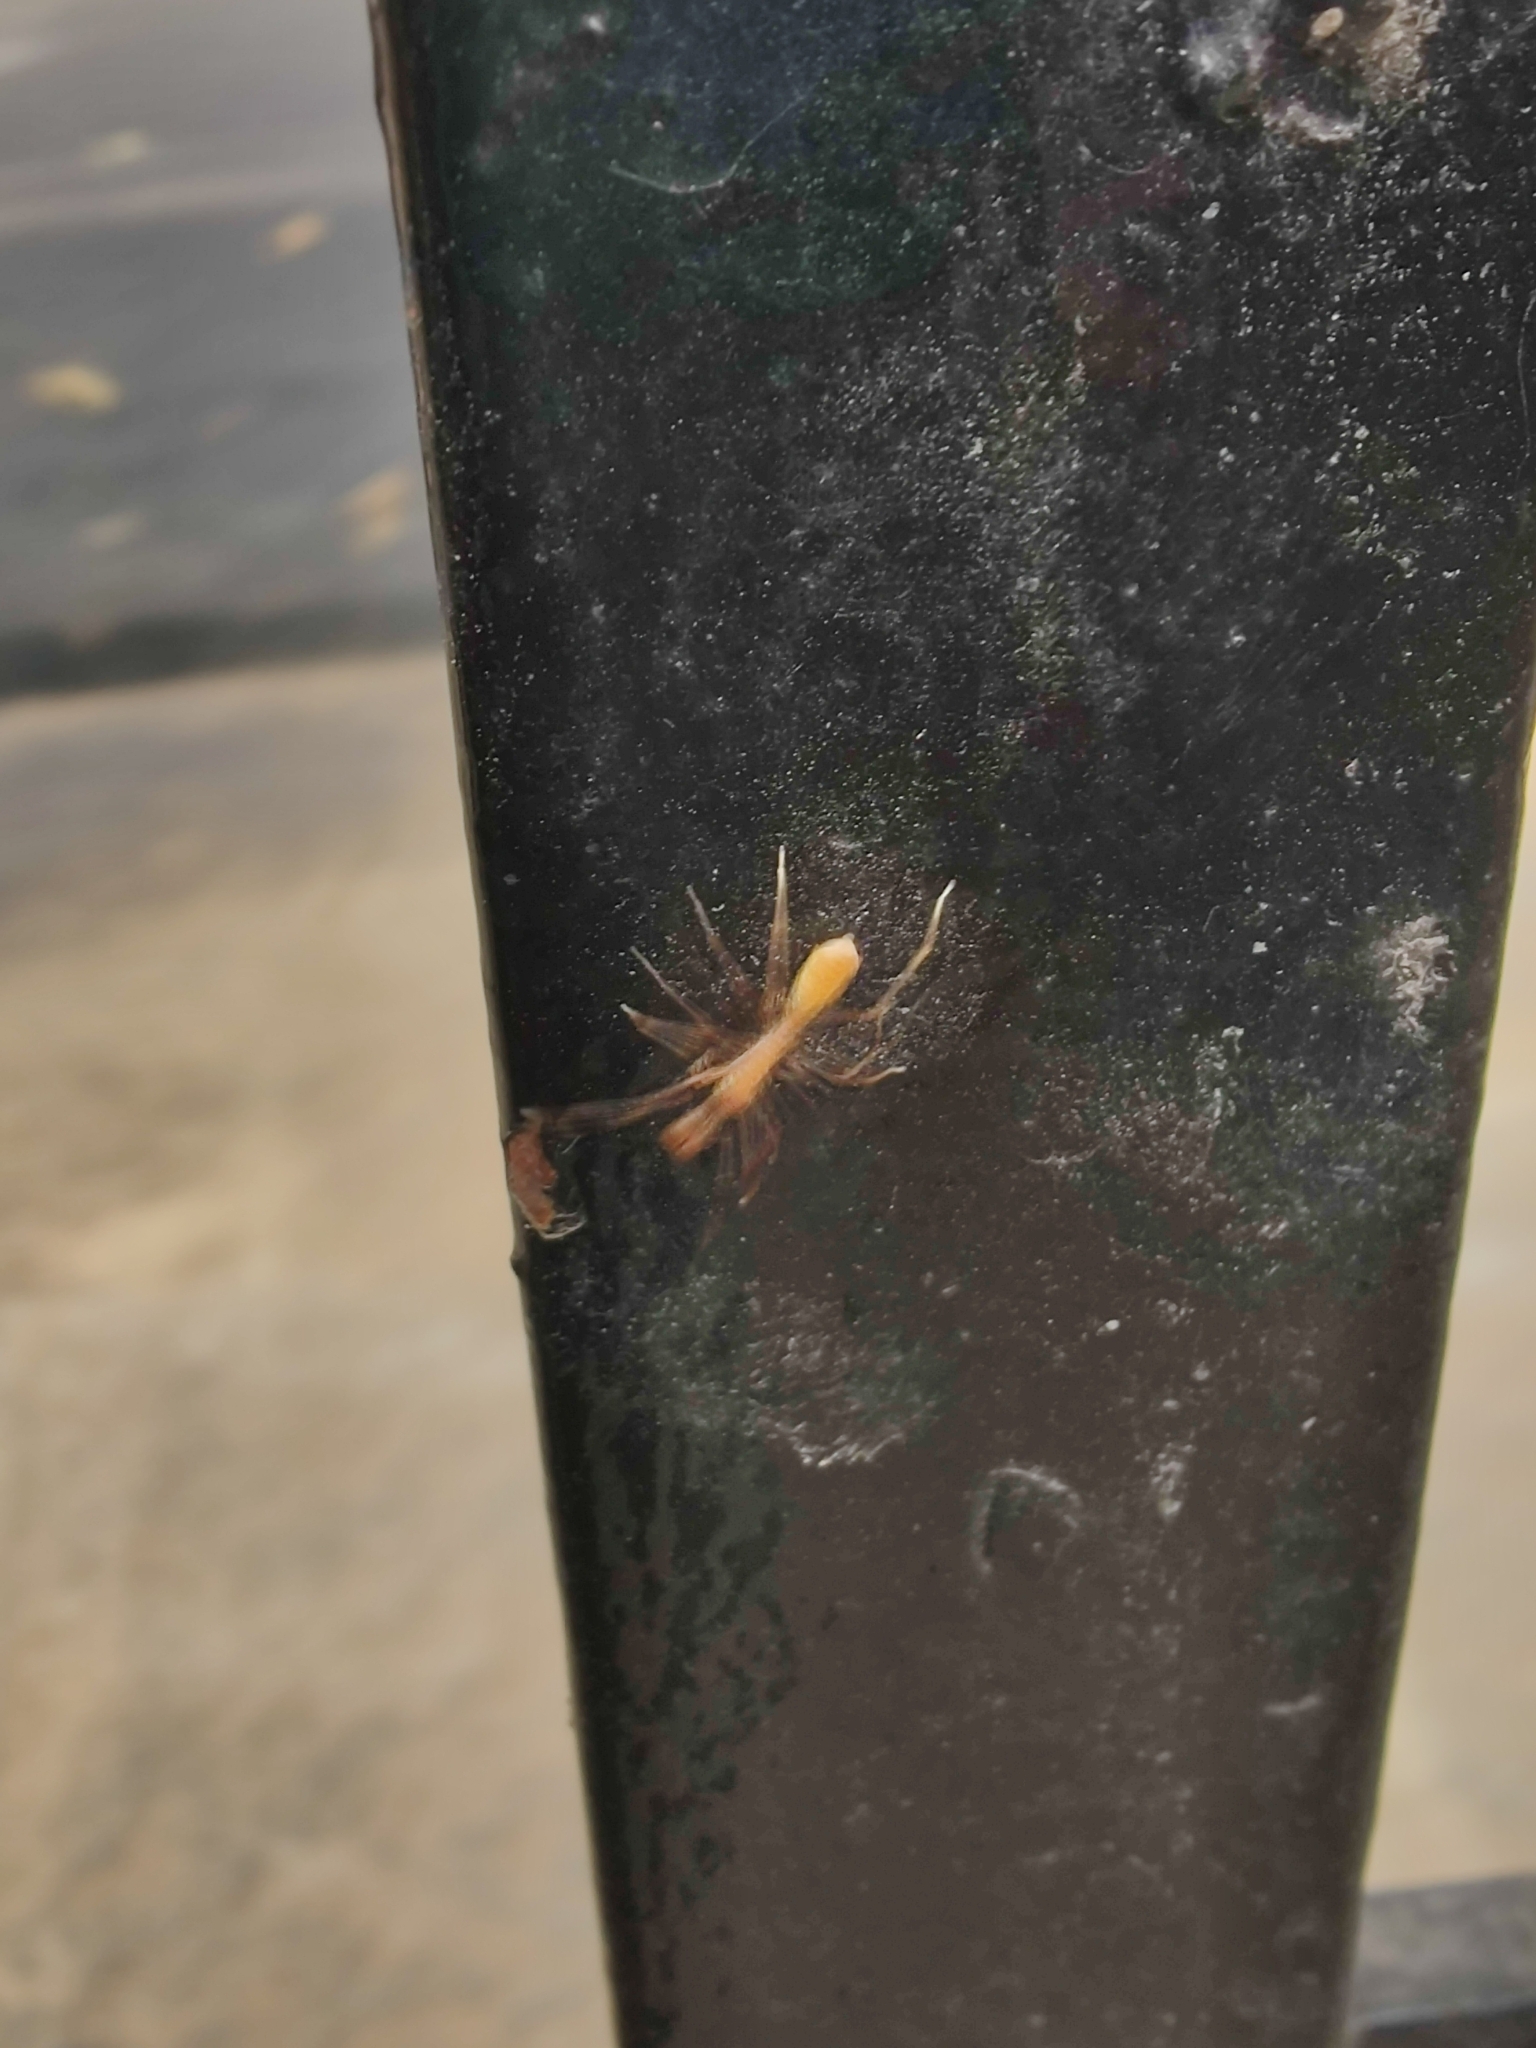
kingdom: Animalia
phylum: Arthropoda
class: Arachnida
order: Araneae
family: Salticidae
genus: Myrmaplata
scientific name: Myrmaplata plataleoides
